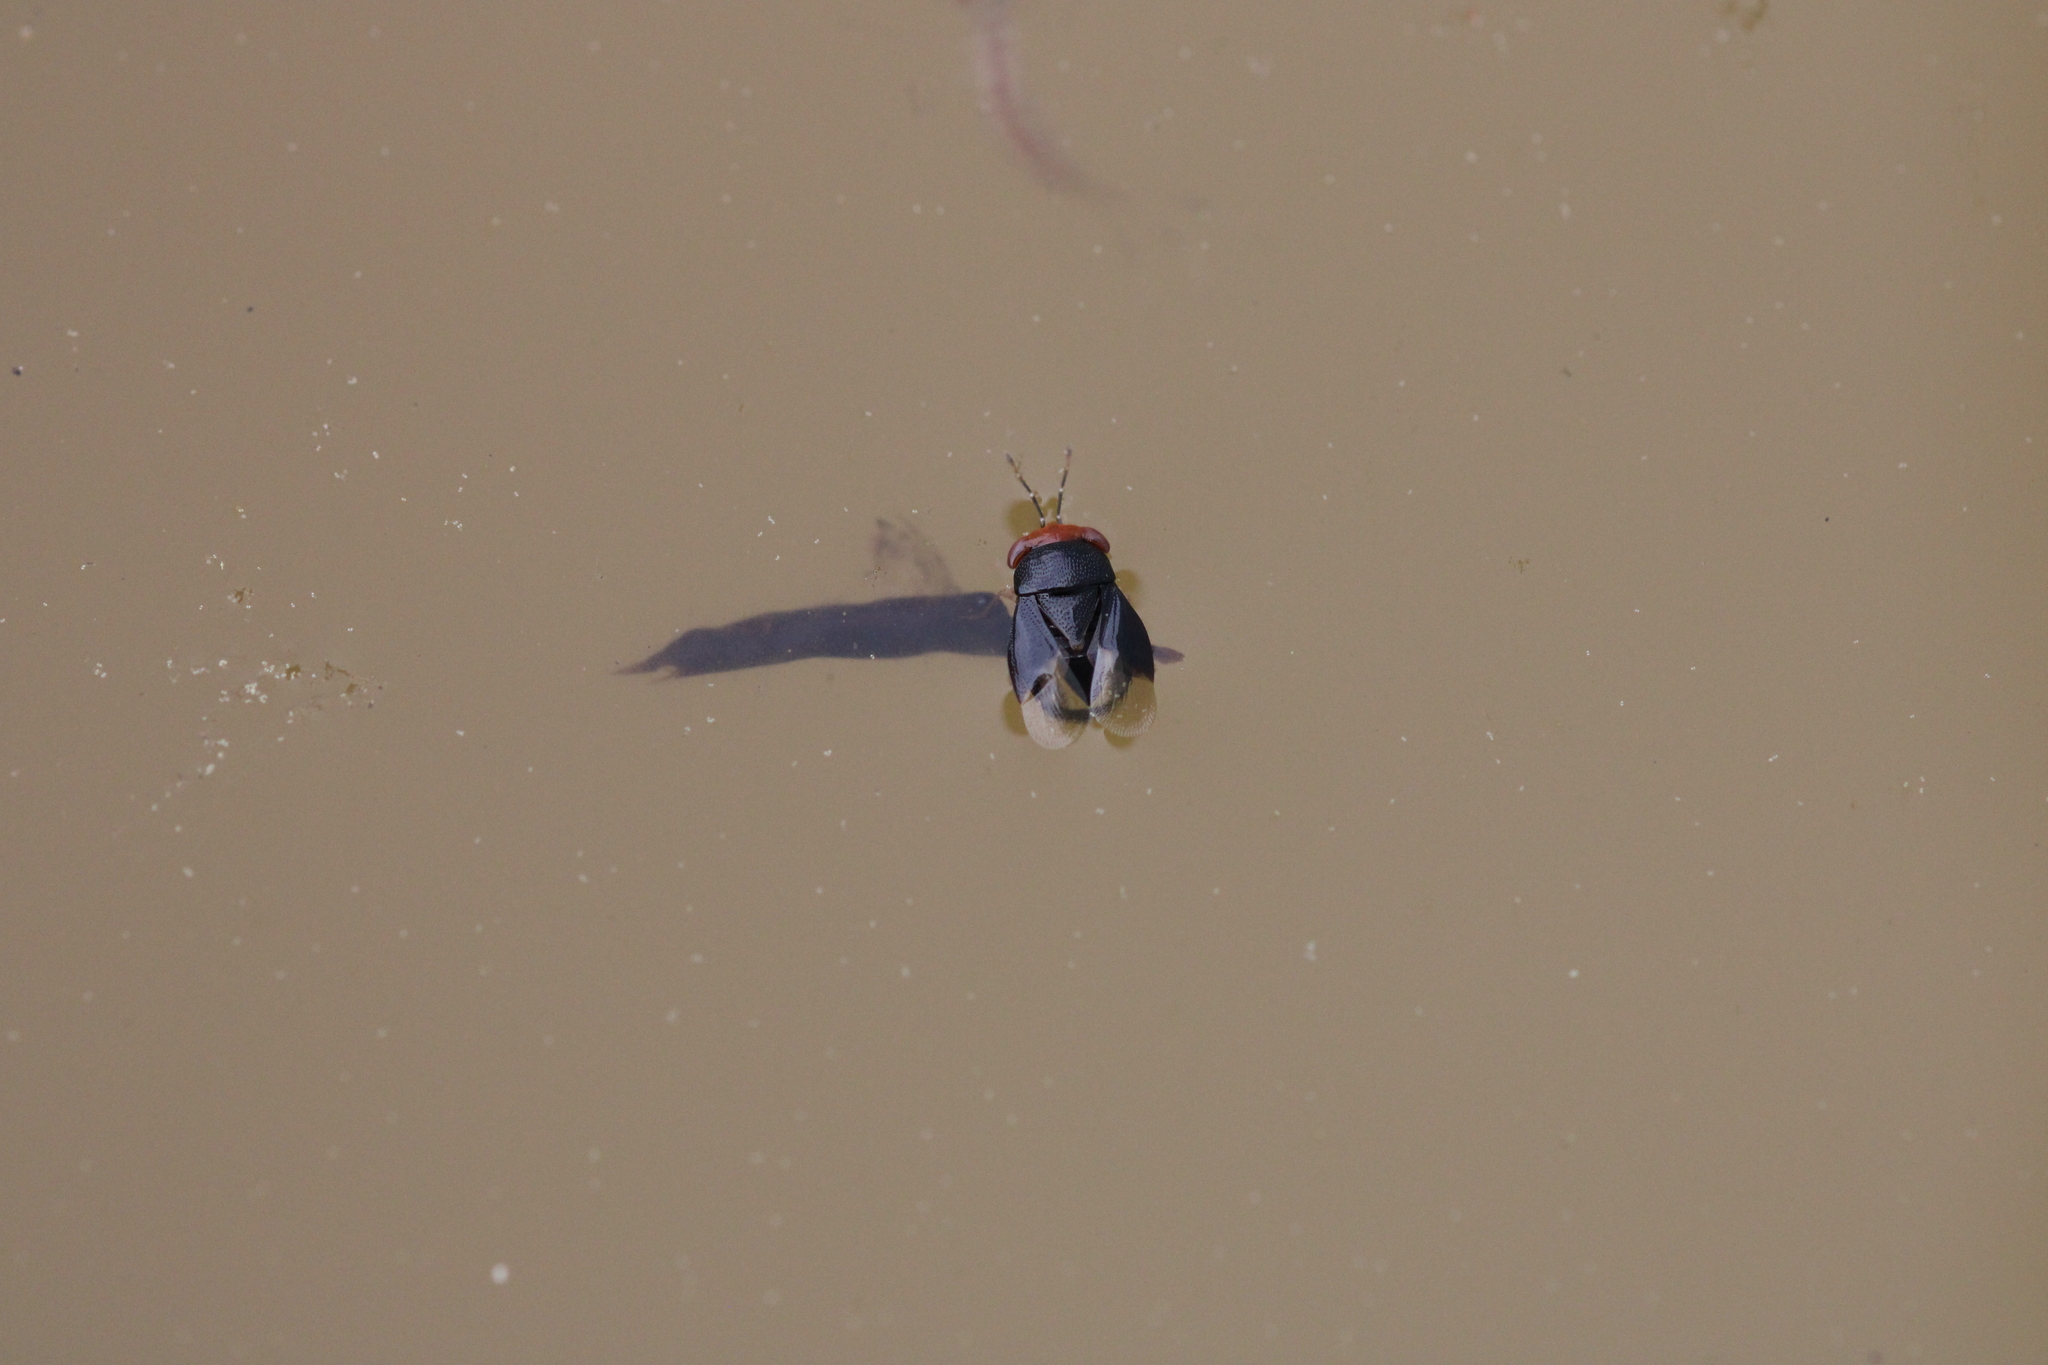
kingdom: Animalia
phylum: Arthropoda
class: Insecta
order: Hemiptera
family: Geocoridae
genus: Geocoris
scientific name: Geocoris erythrocephala
